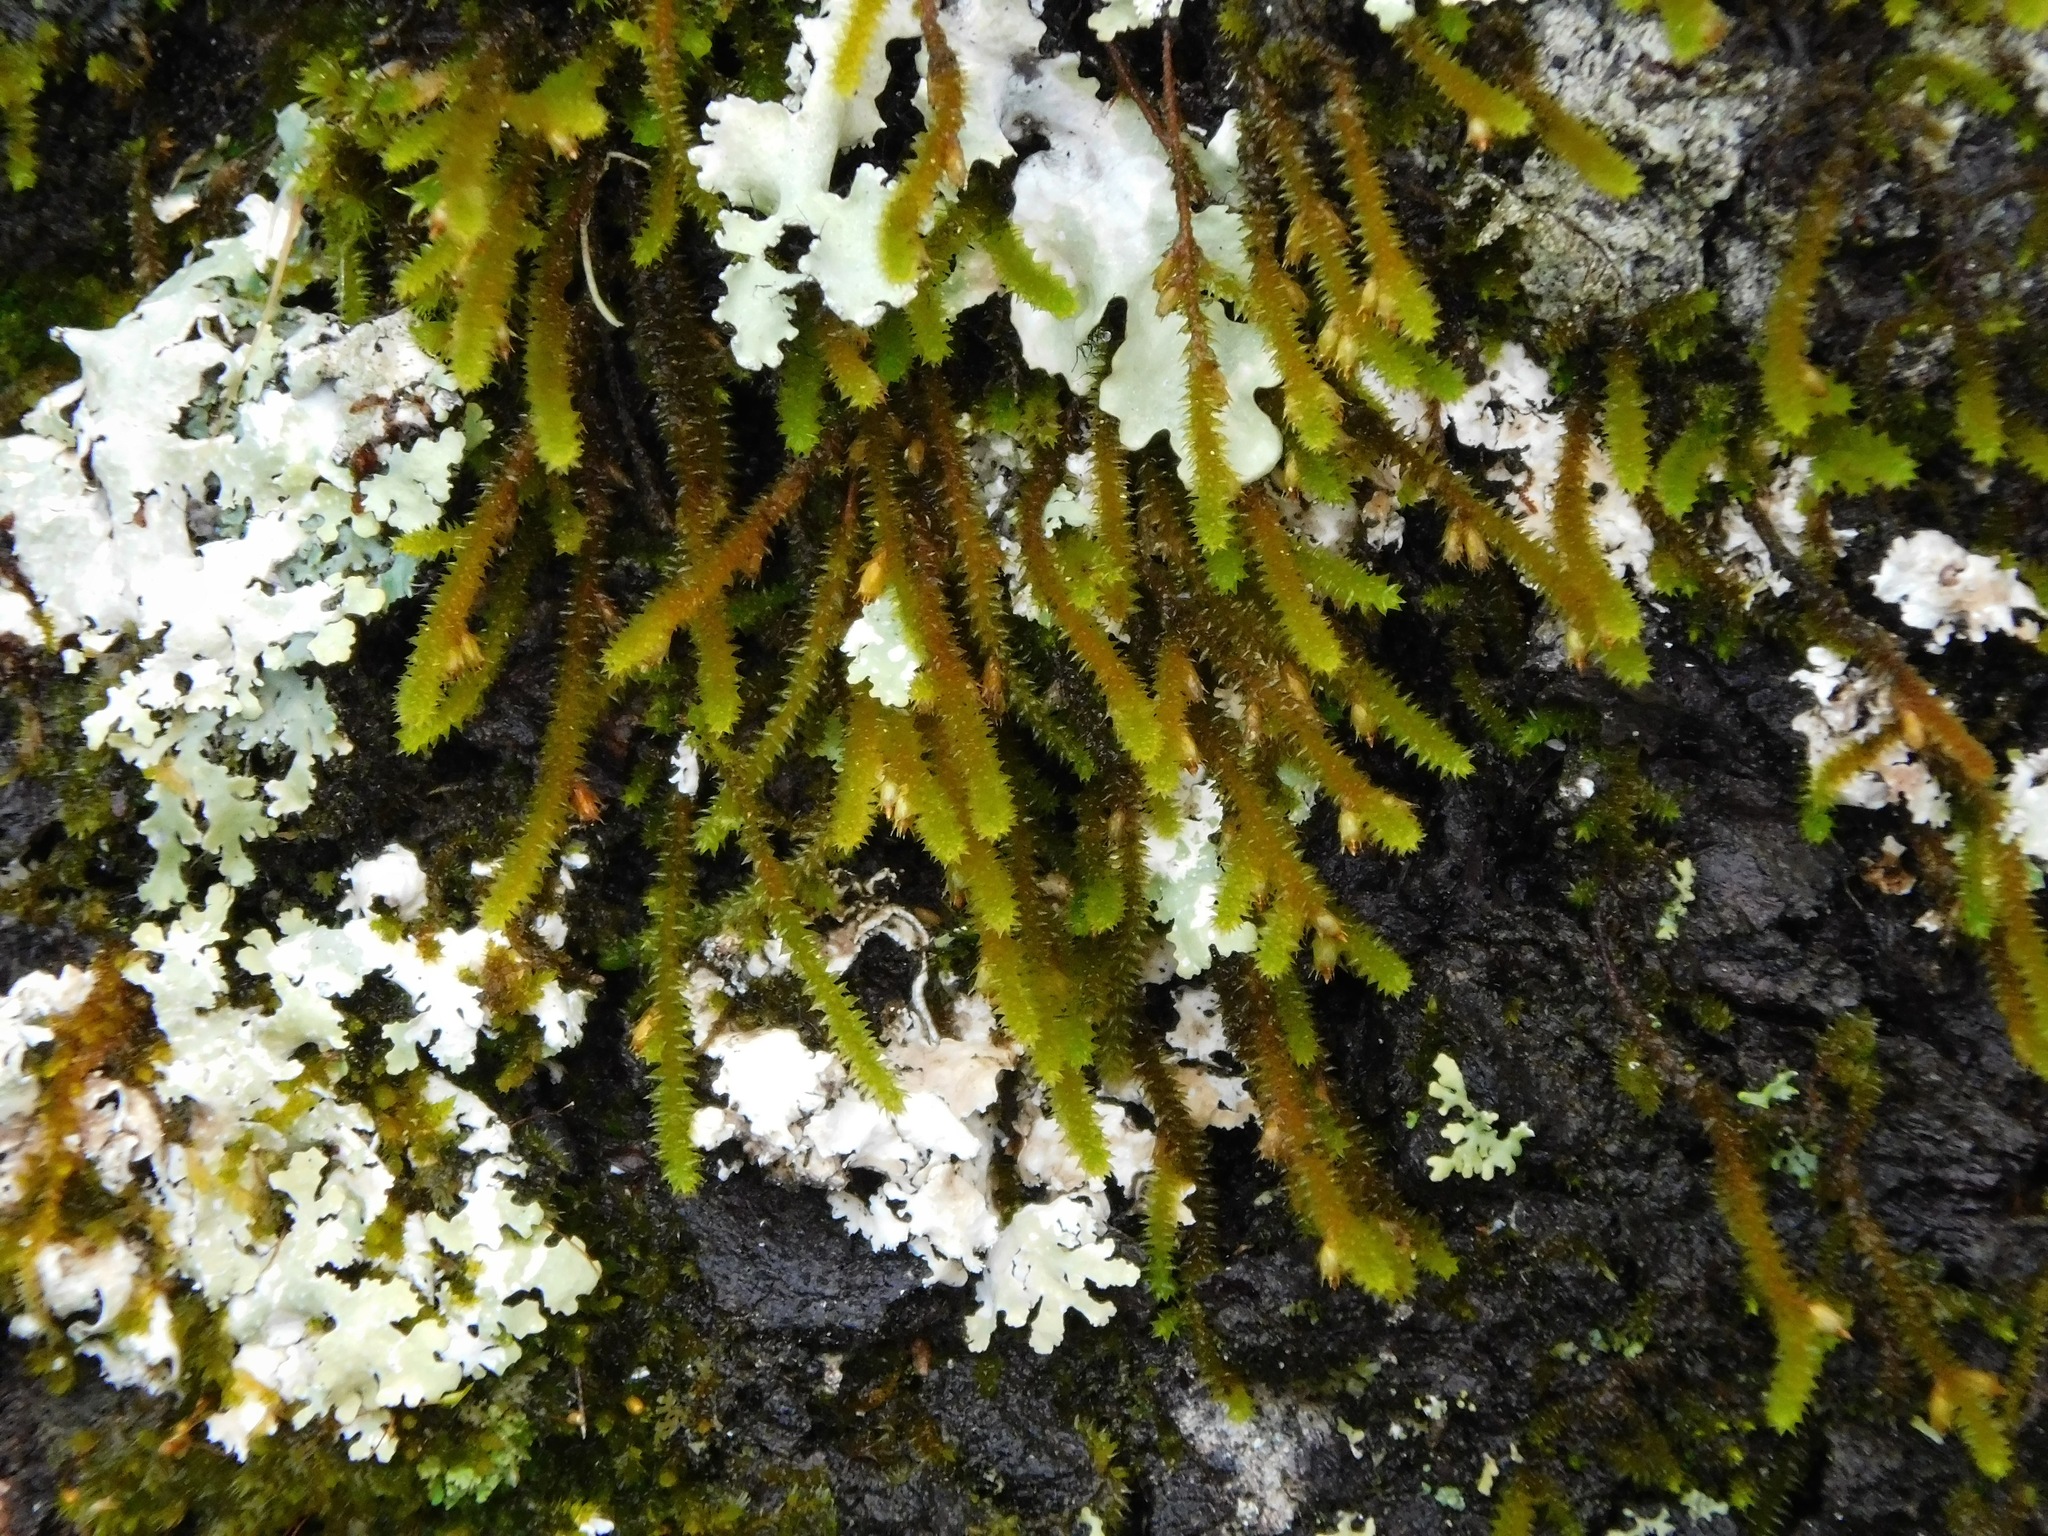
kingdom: Plantae
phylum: Bryophyta
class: Bryopsida
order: Hypnales
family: Anomodontaceae
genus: Anomodon
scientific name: Anomodon viticulosus
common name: Tall anomodon
